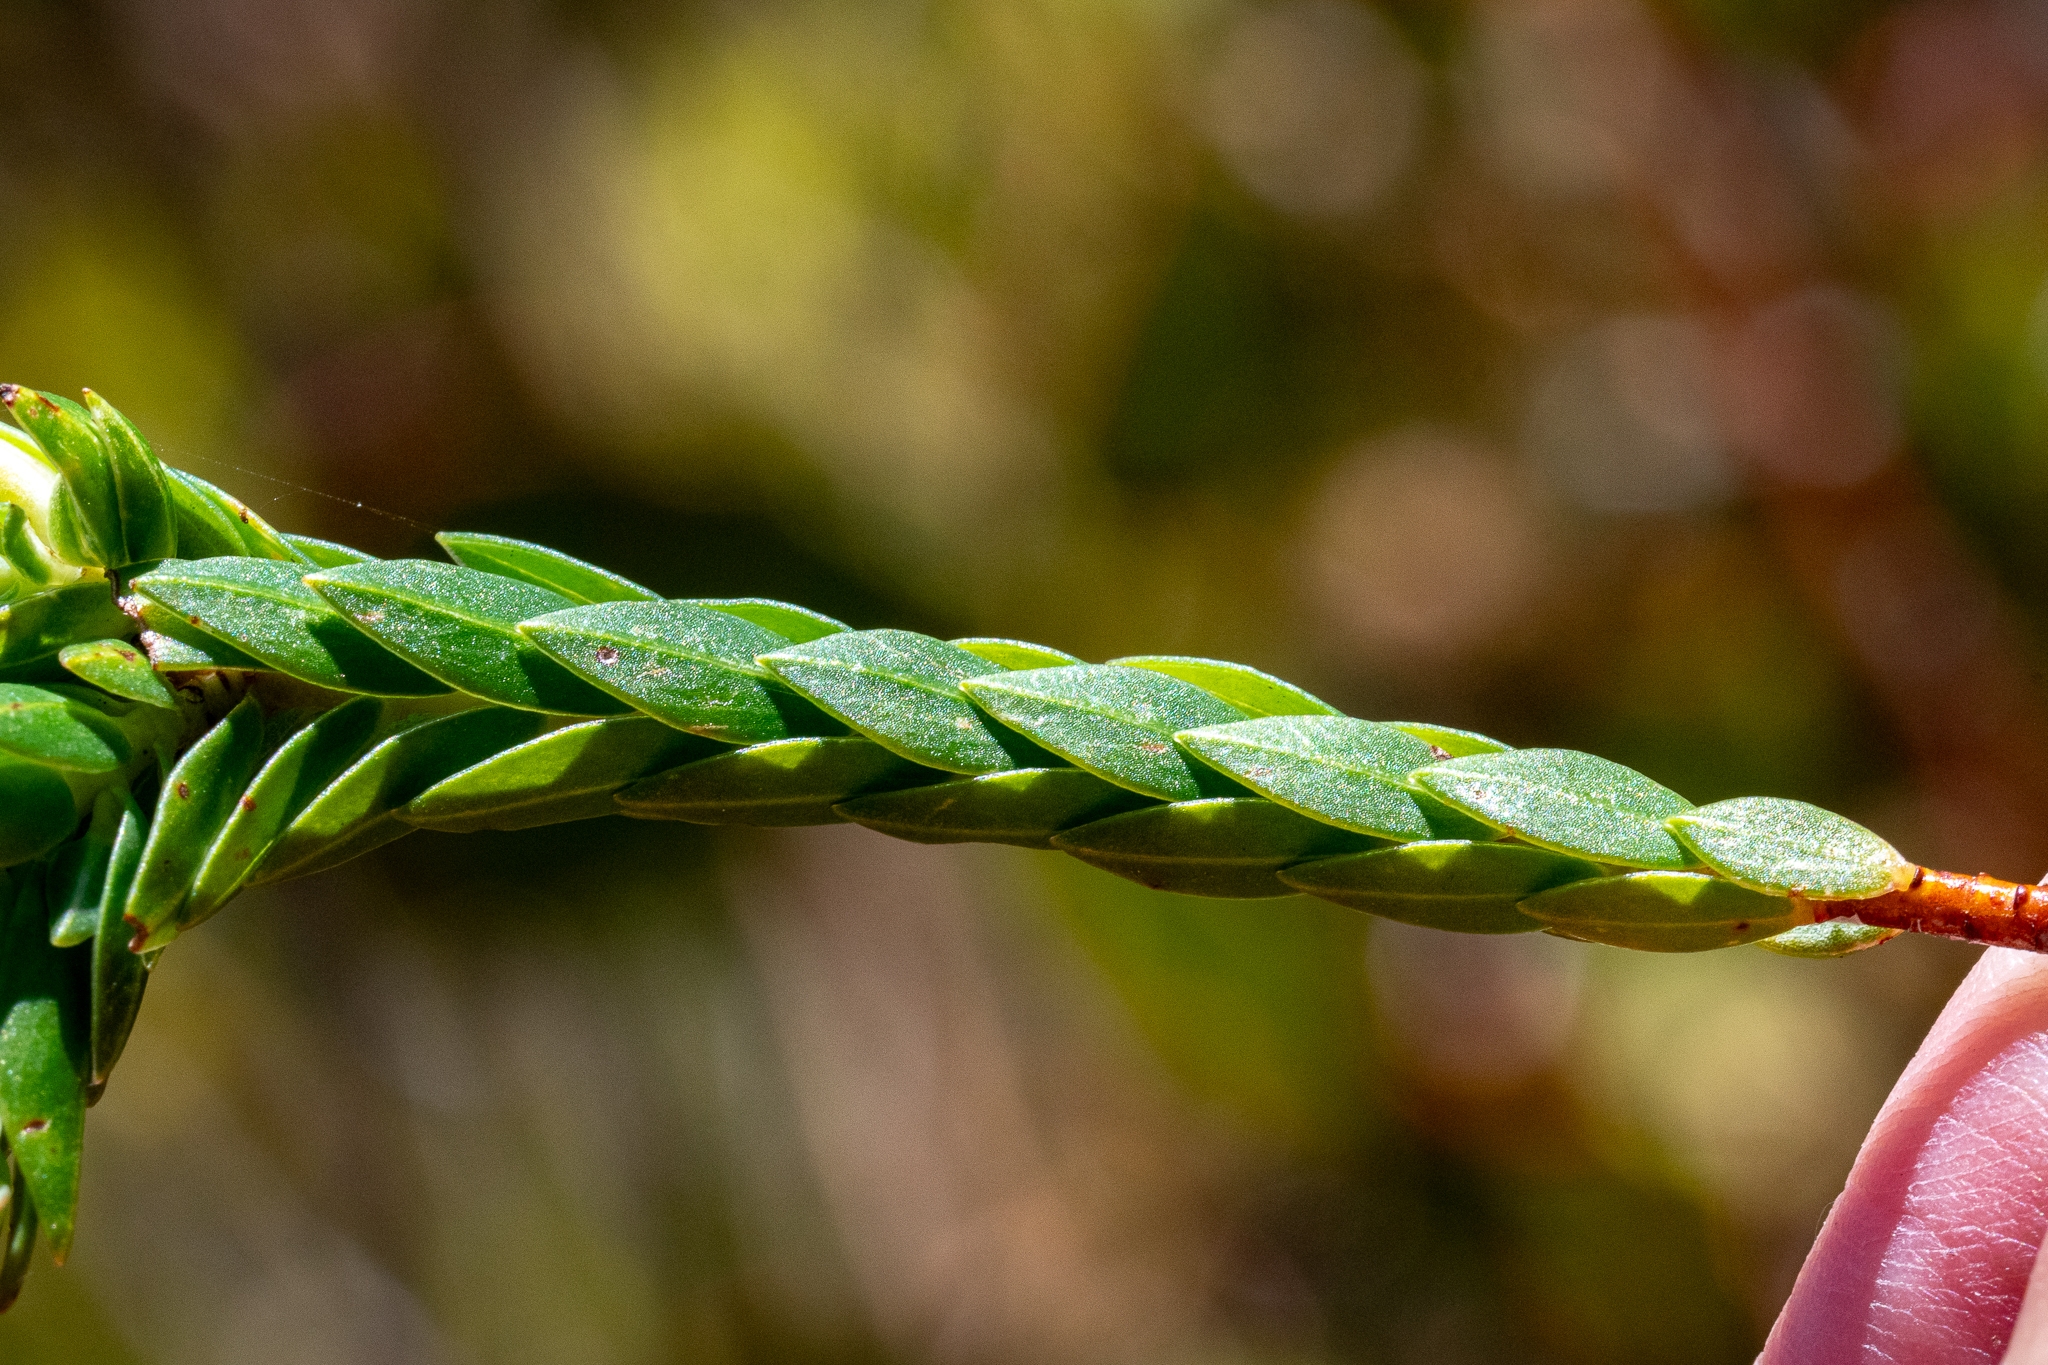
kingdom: Plantae
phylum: Tracheophyta
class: Magnoliopsida
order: Malvales
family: Thymelaeaceae
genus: Gnidia
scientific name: Gnidia oppositifolia
